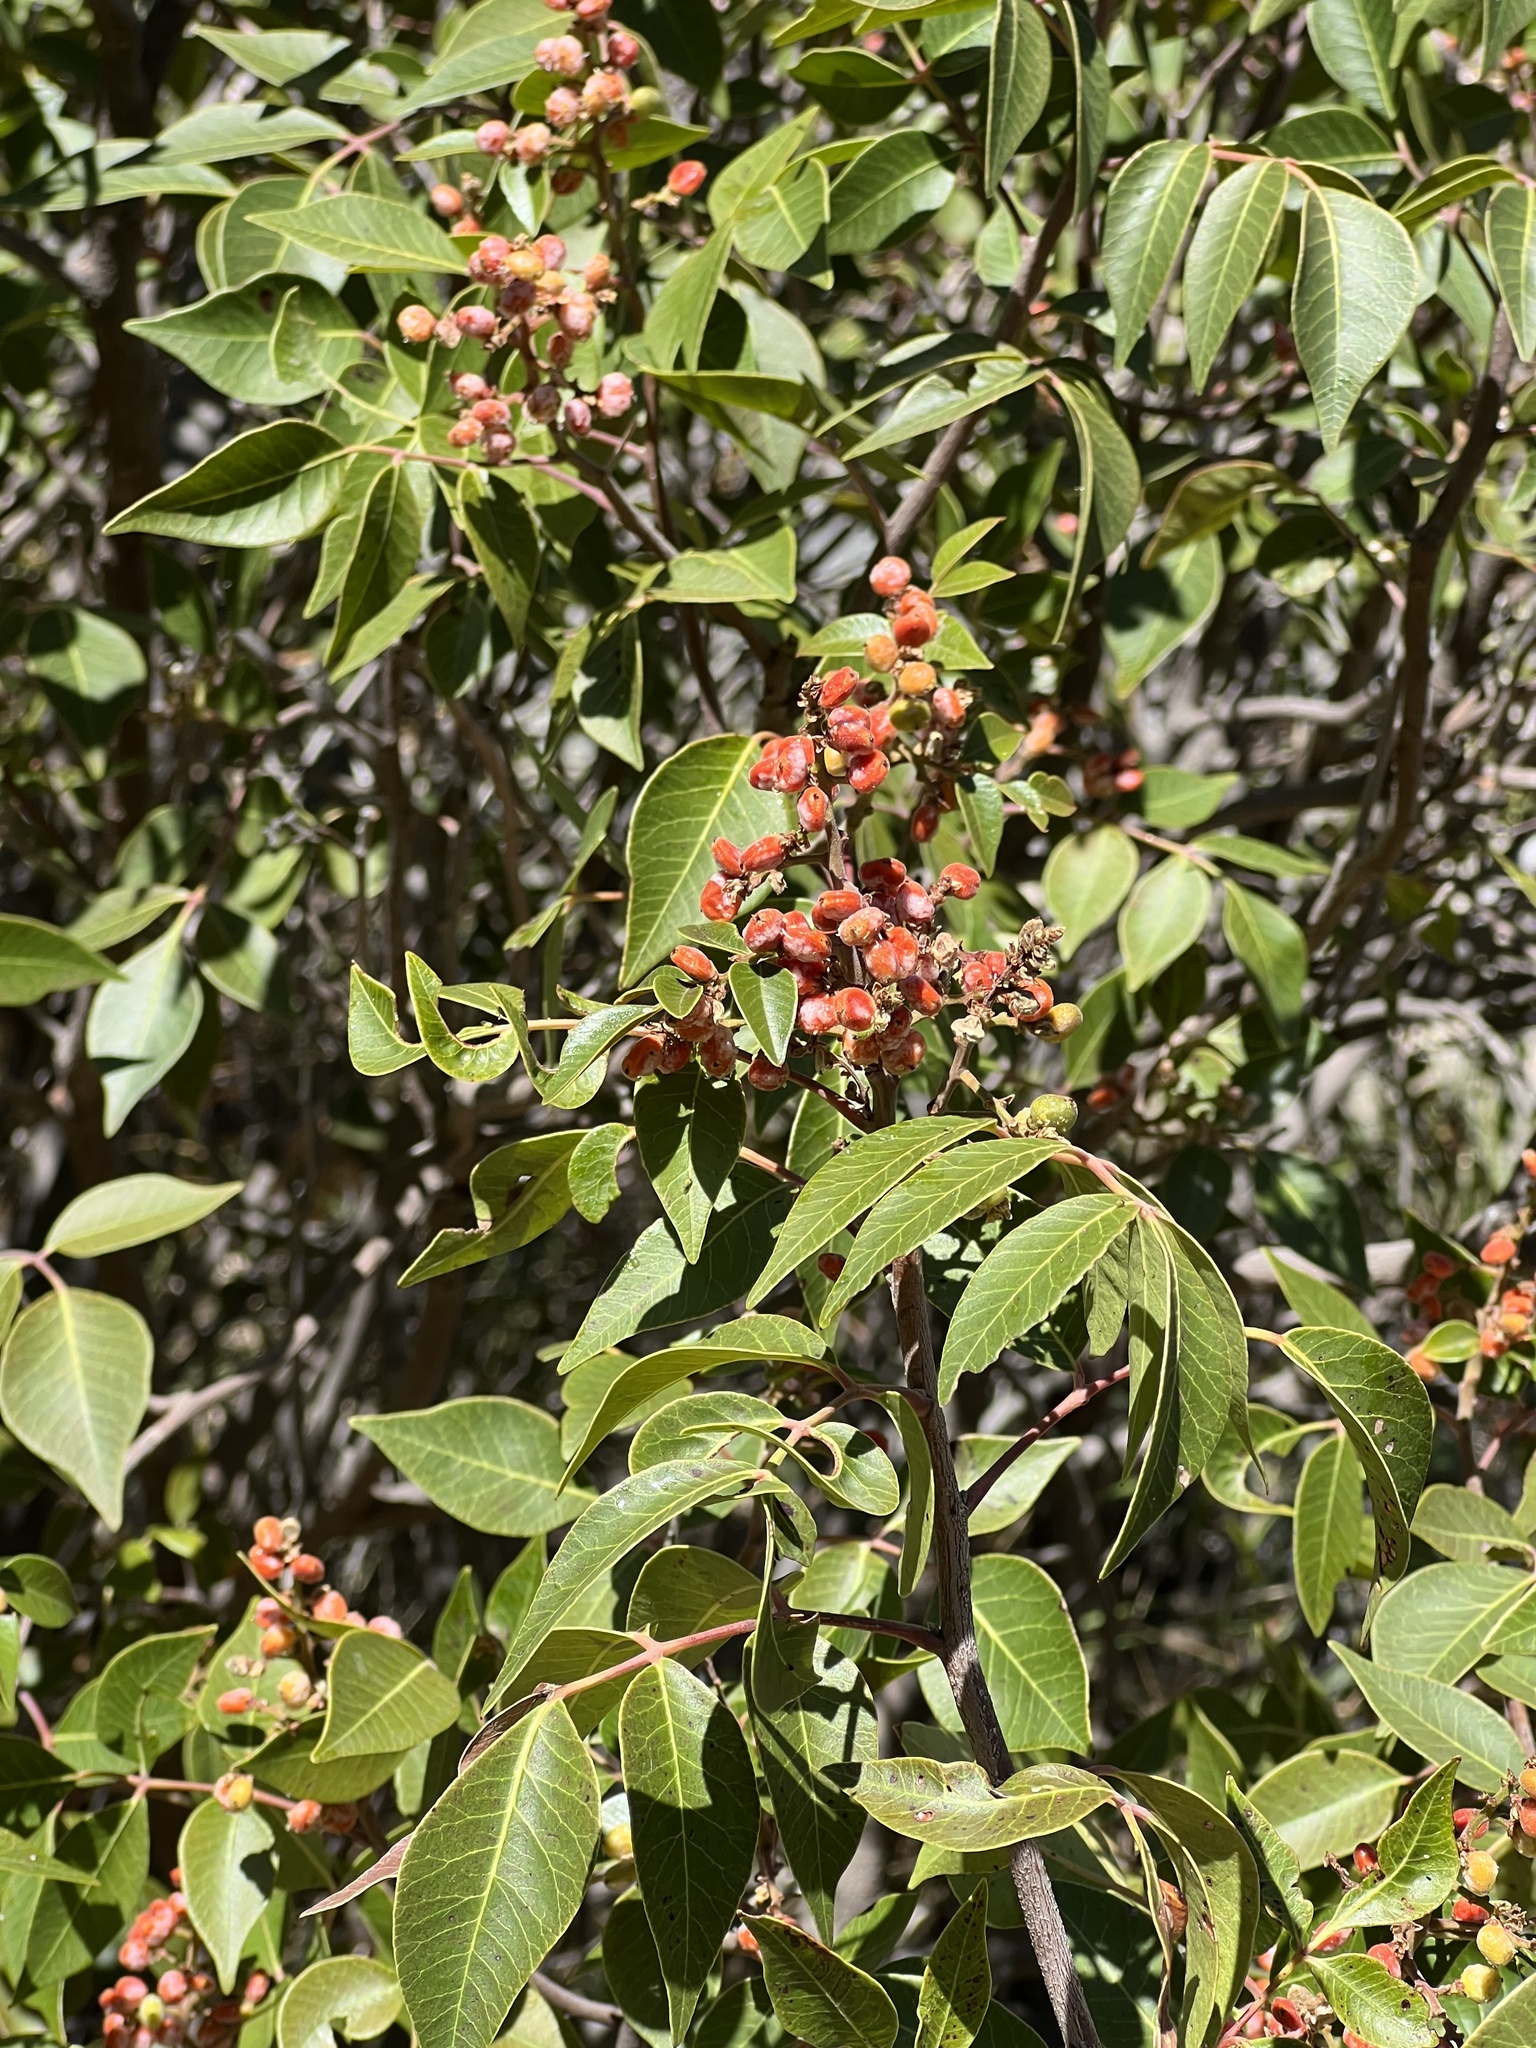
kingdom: Plantae
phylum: Tracheophyta
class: Magnoliopsida
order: Sapindales
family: Anacardiaceae
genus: Rhus
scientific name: Rhus virens
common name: Evergreen sumac
